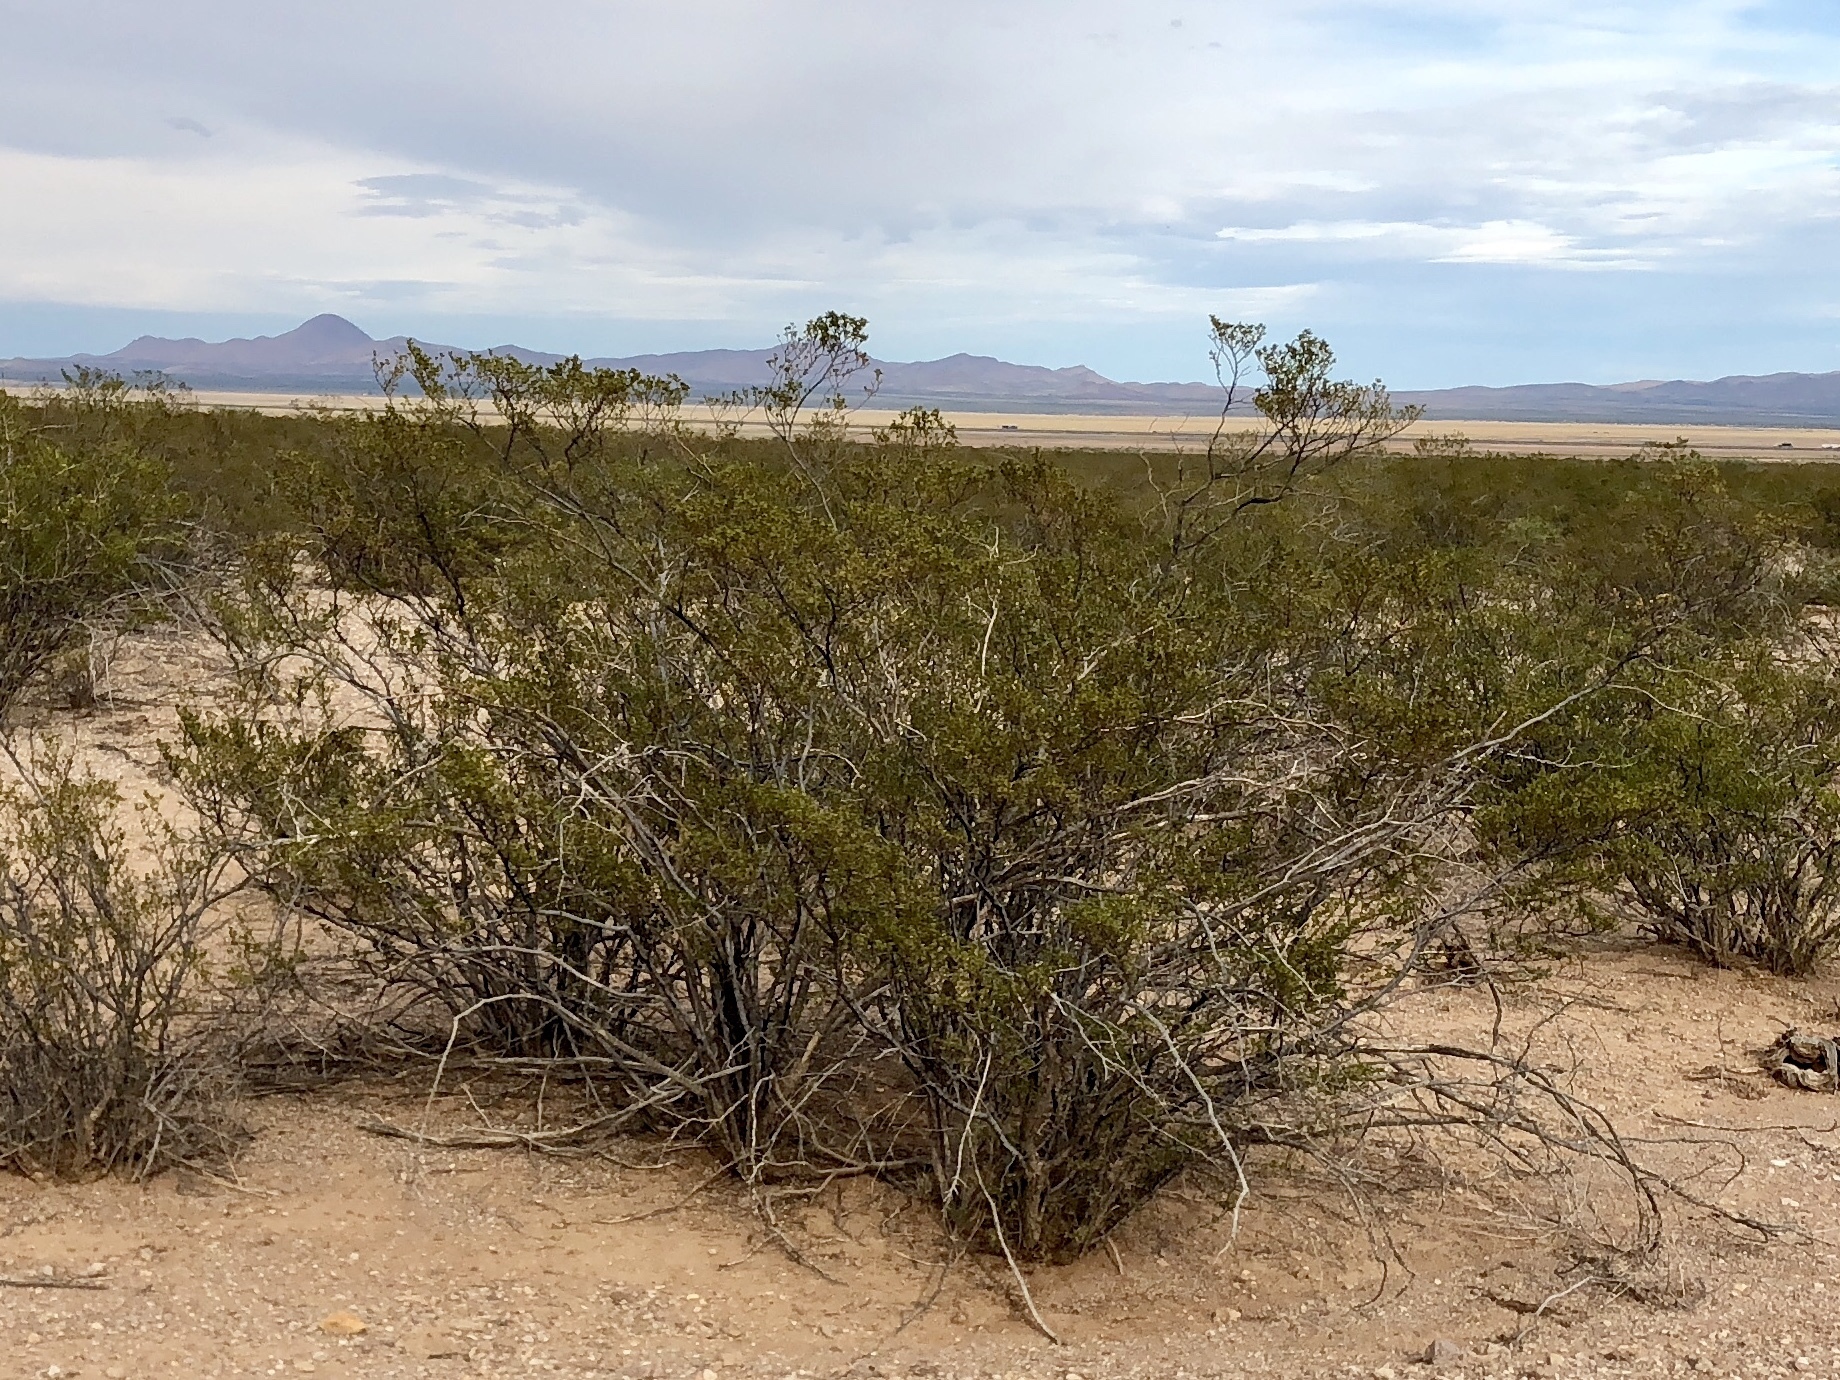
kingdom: Plantae
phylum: Tracheophyta
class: Magnoliopsida
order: Zygophyllales
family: Zygophyllaceae
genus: Larrea
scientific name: Larrea tridentata
